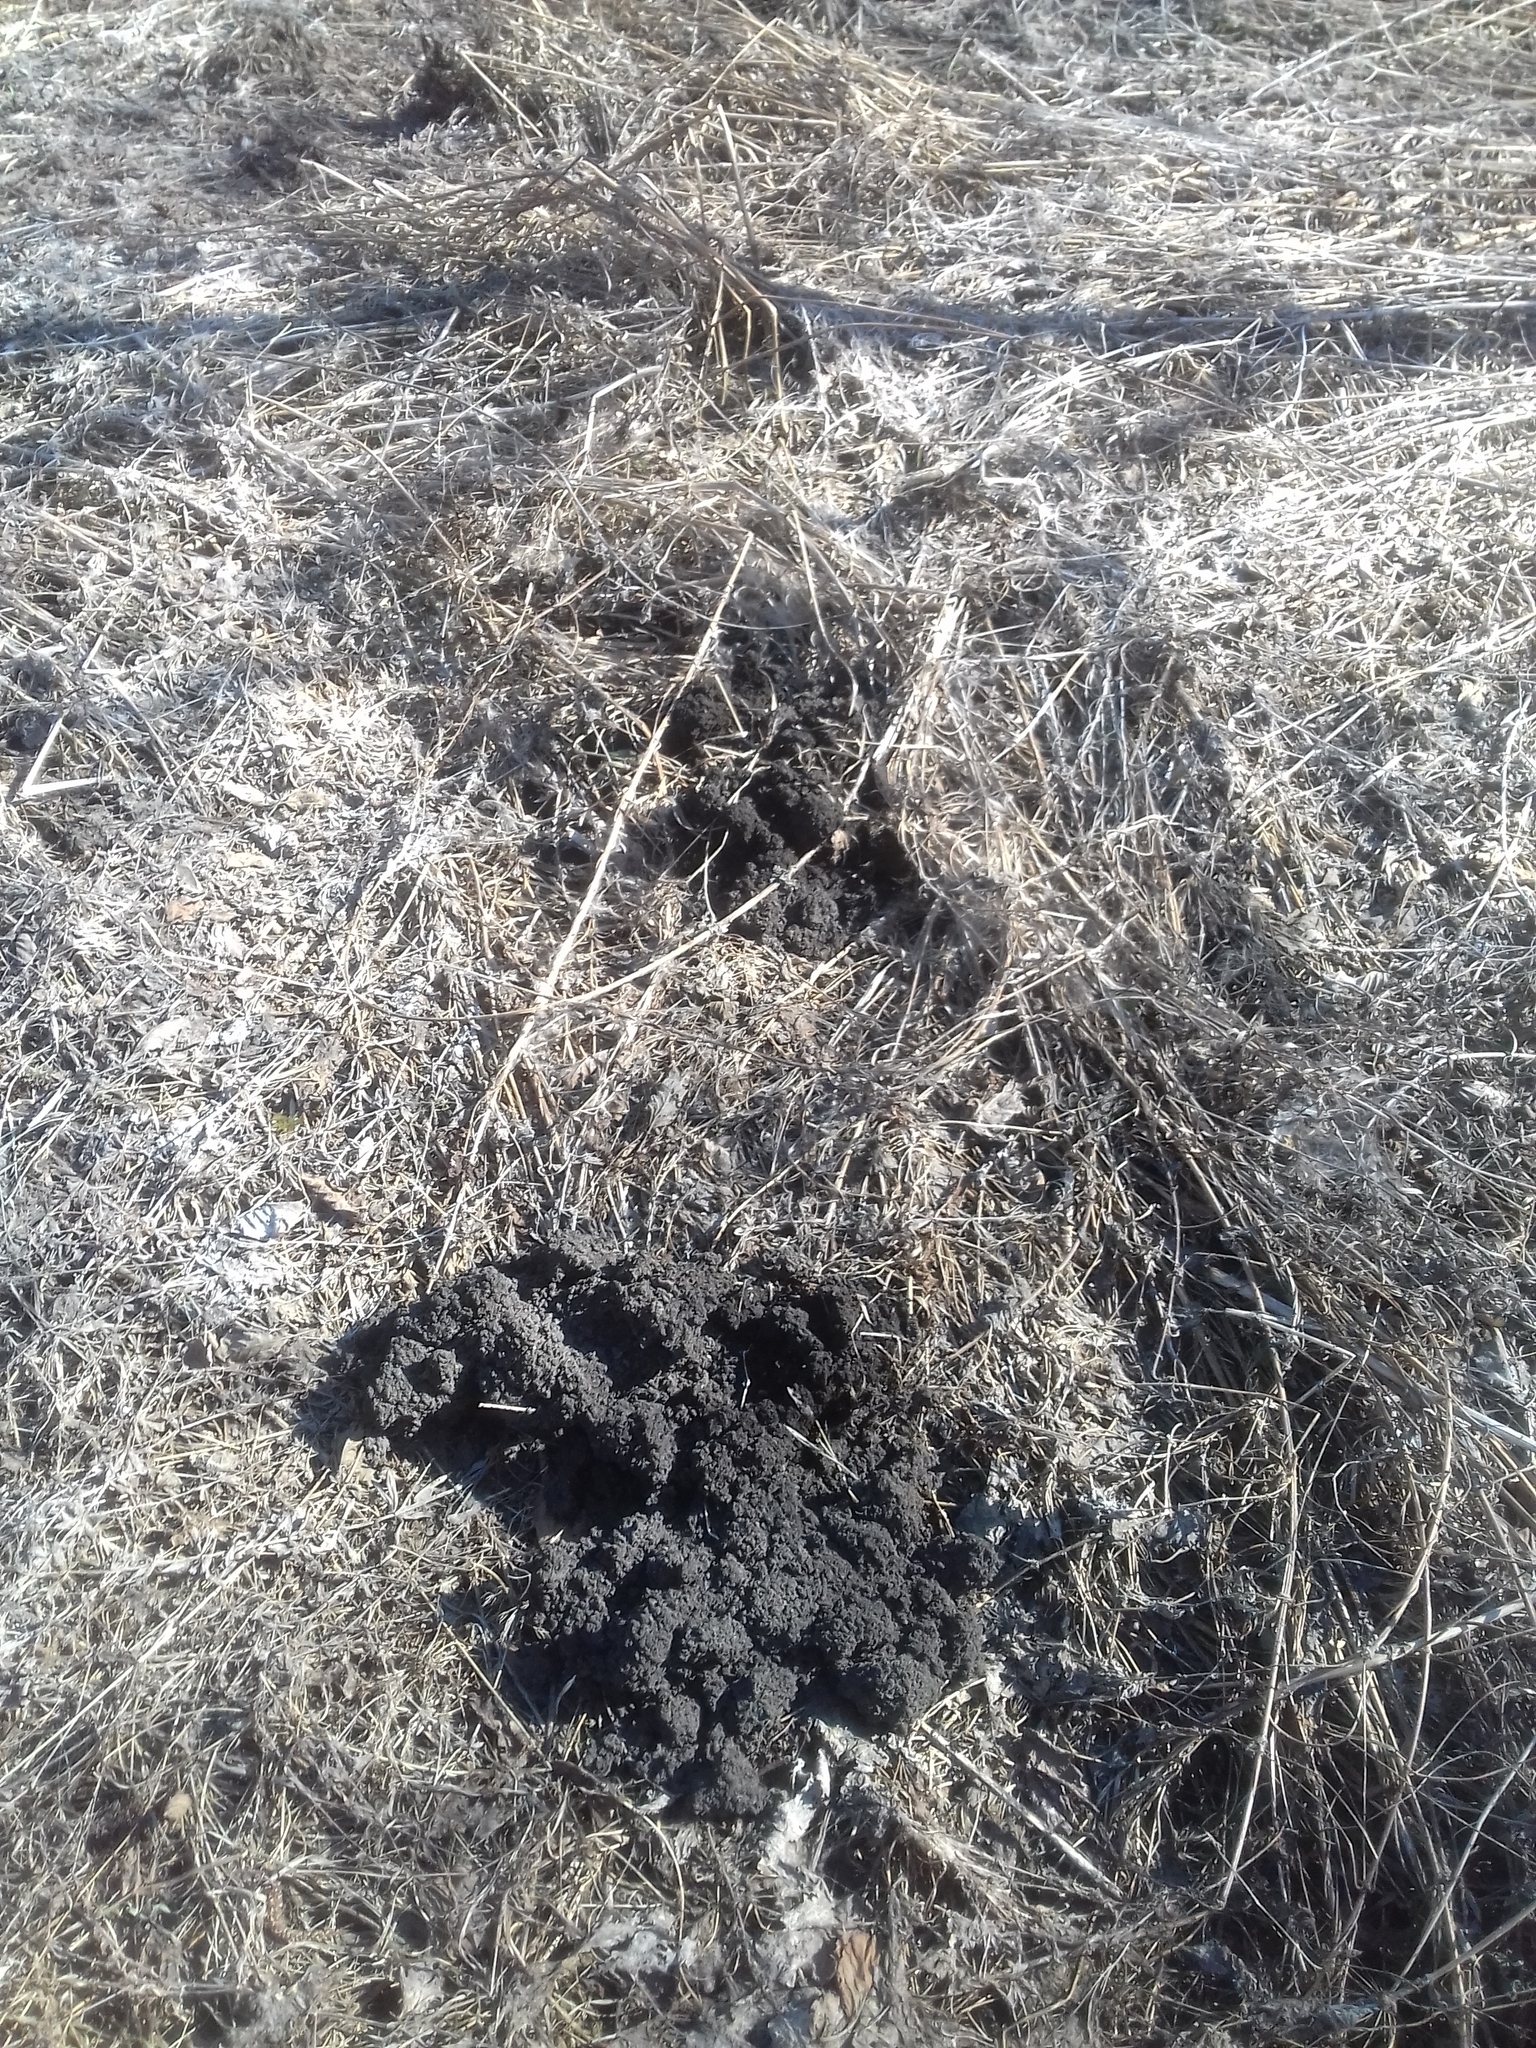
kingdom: Animalia
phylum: Chordata
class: Mammalia
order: Soricomorpha
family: Talpidae
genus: Talpa
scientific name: Talpa europaea
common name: European mole
